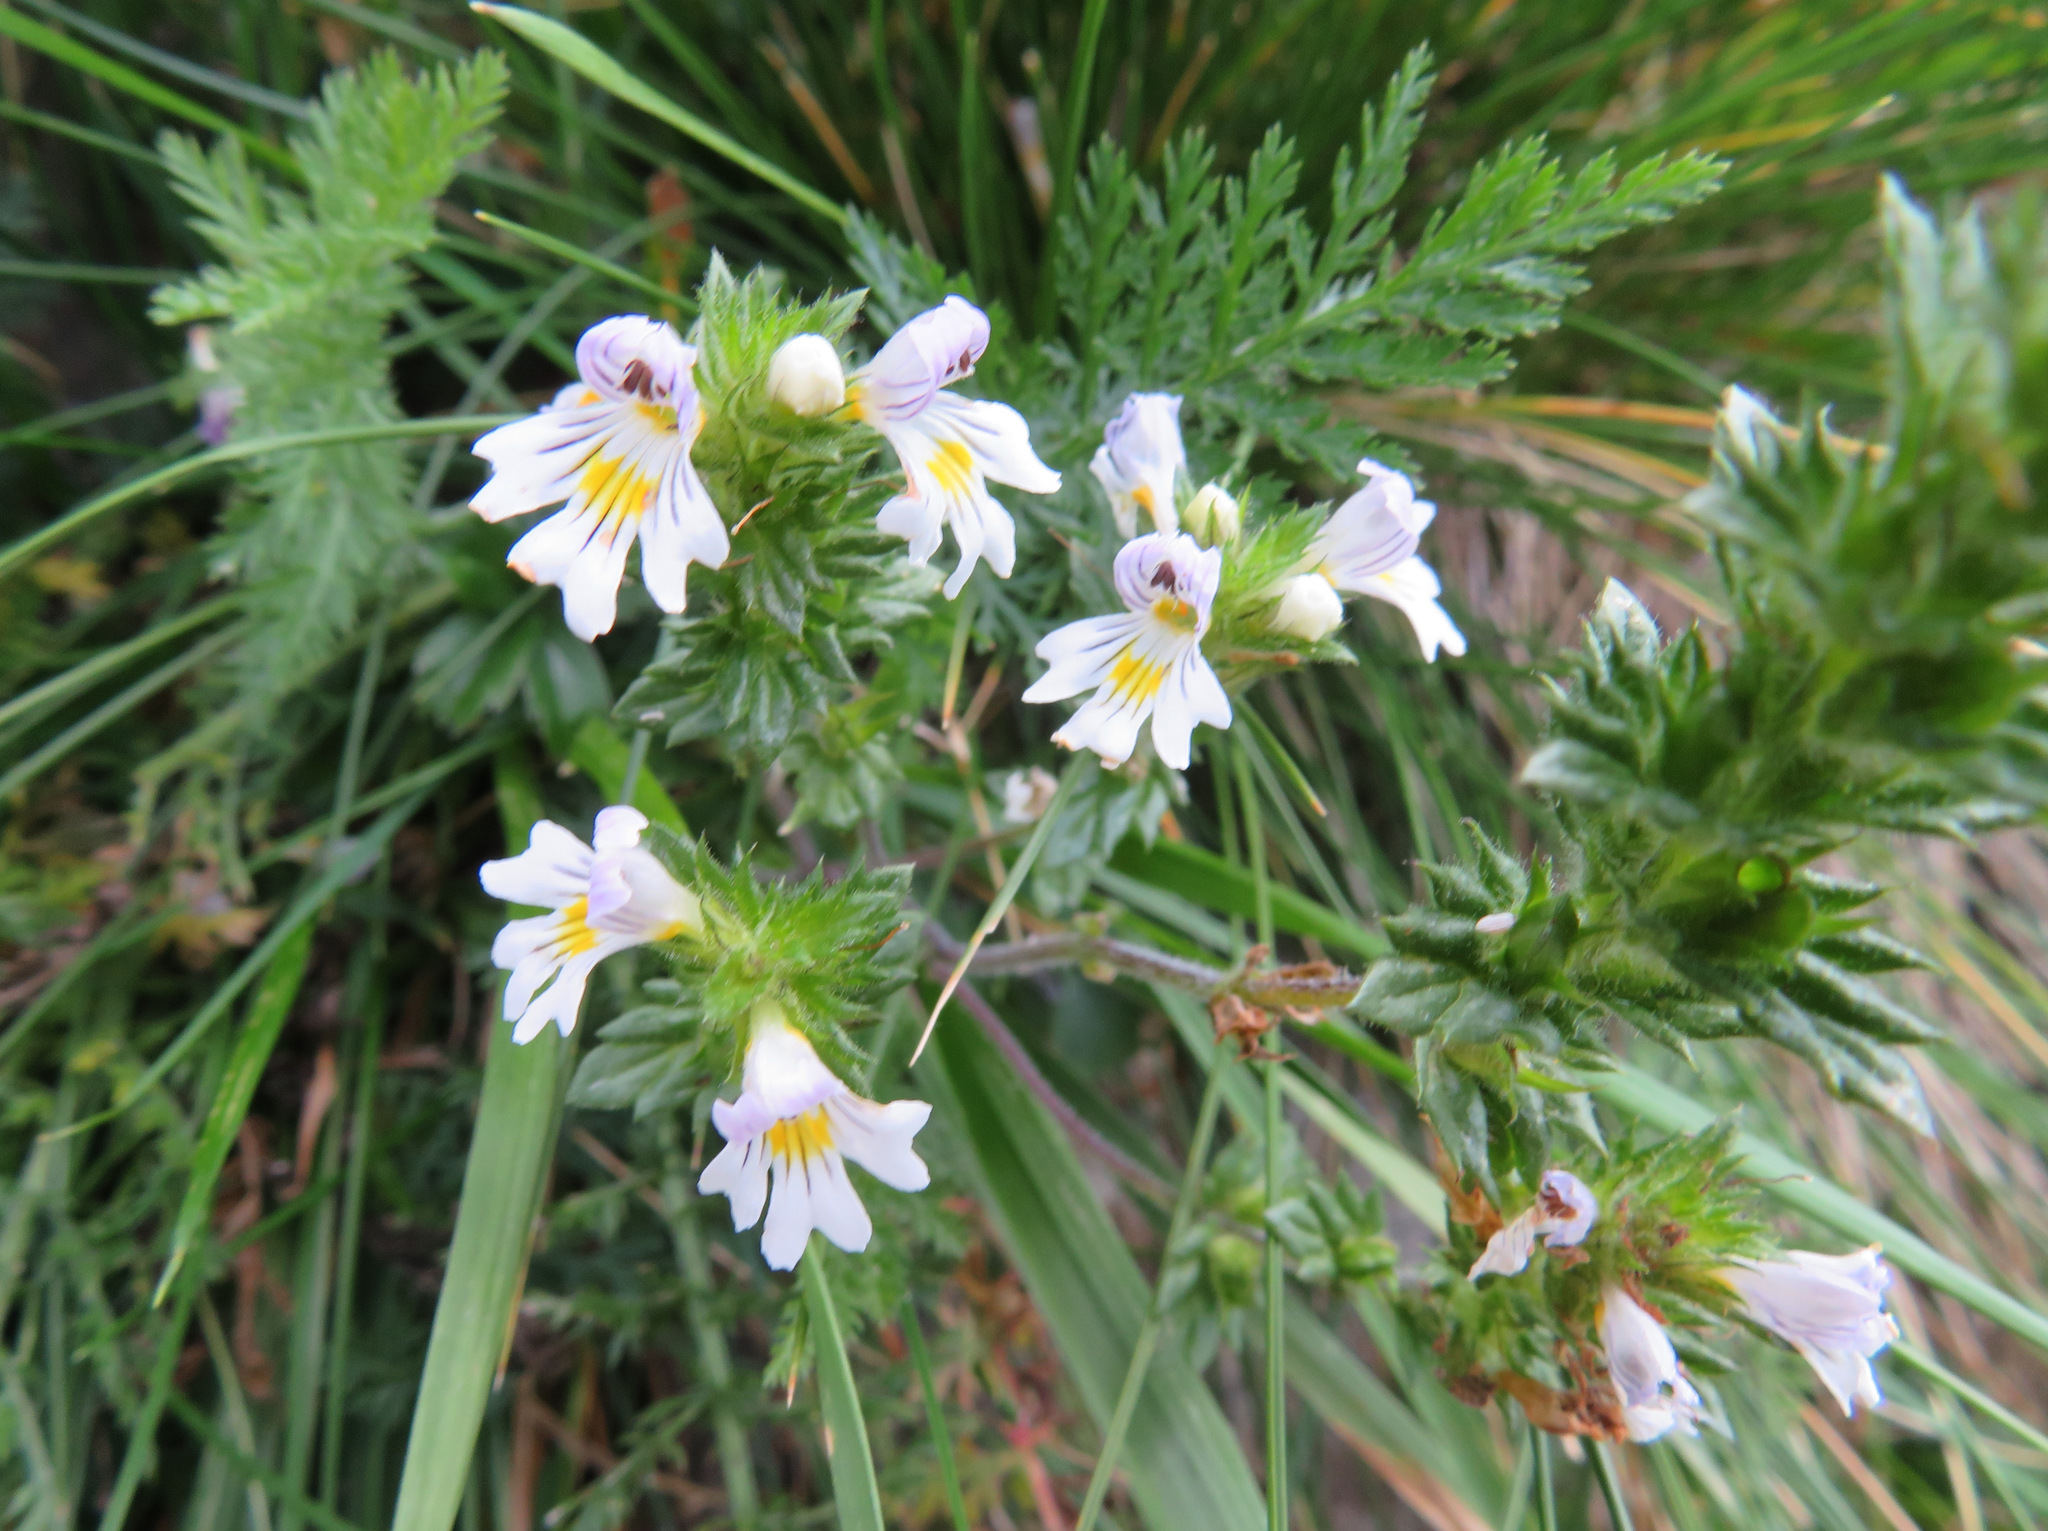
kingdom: Plantae
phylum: Tracheophyta
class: Magnoliopsida
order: Lamiales
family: Orobanchaceae
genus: Euphrasia
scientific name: Euphrasia officinalis
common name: Eyebright
